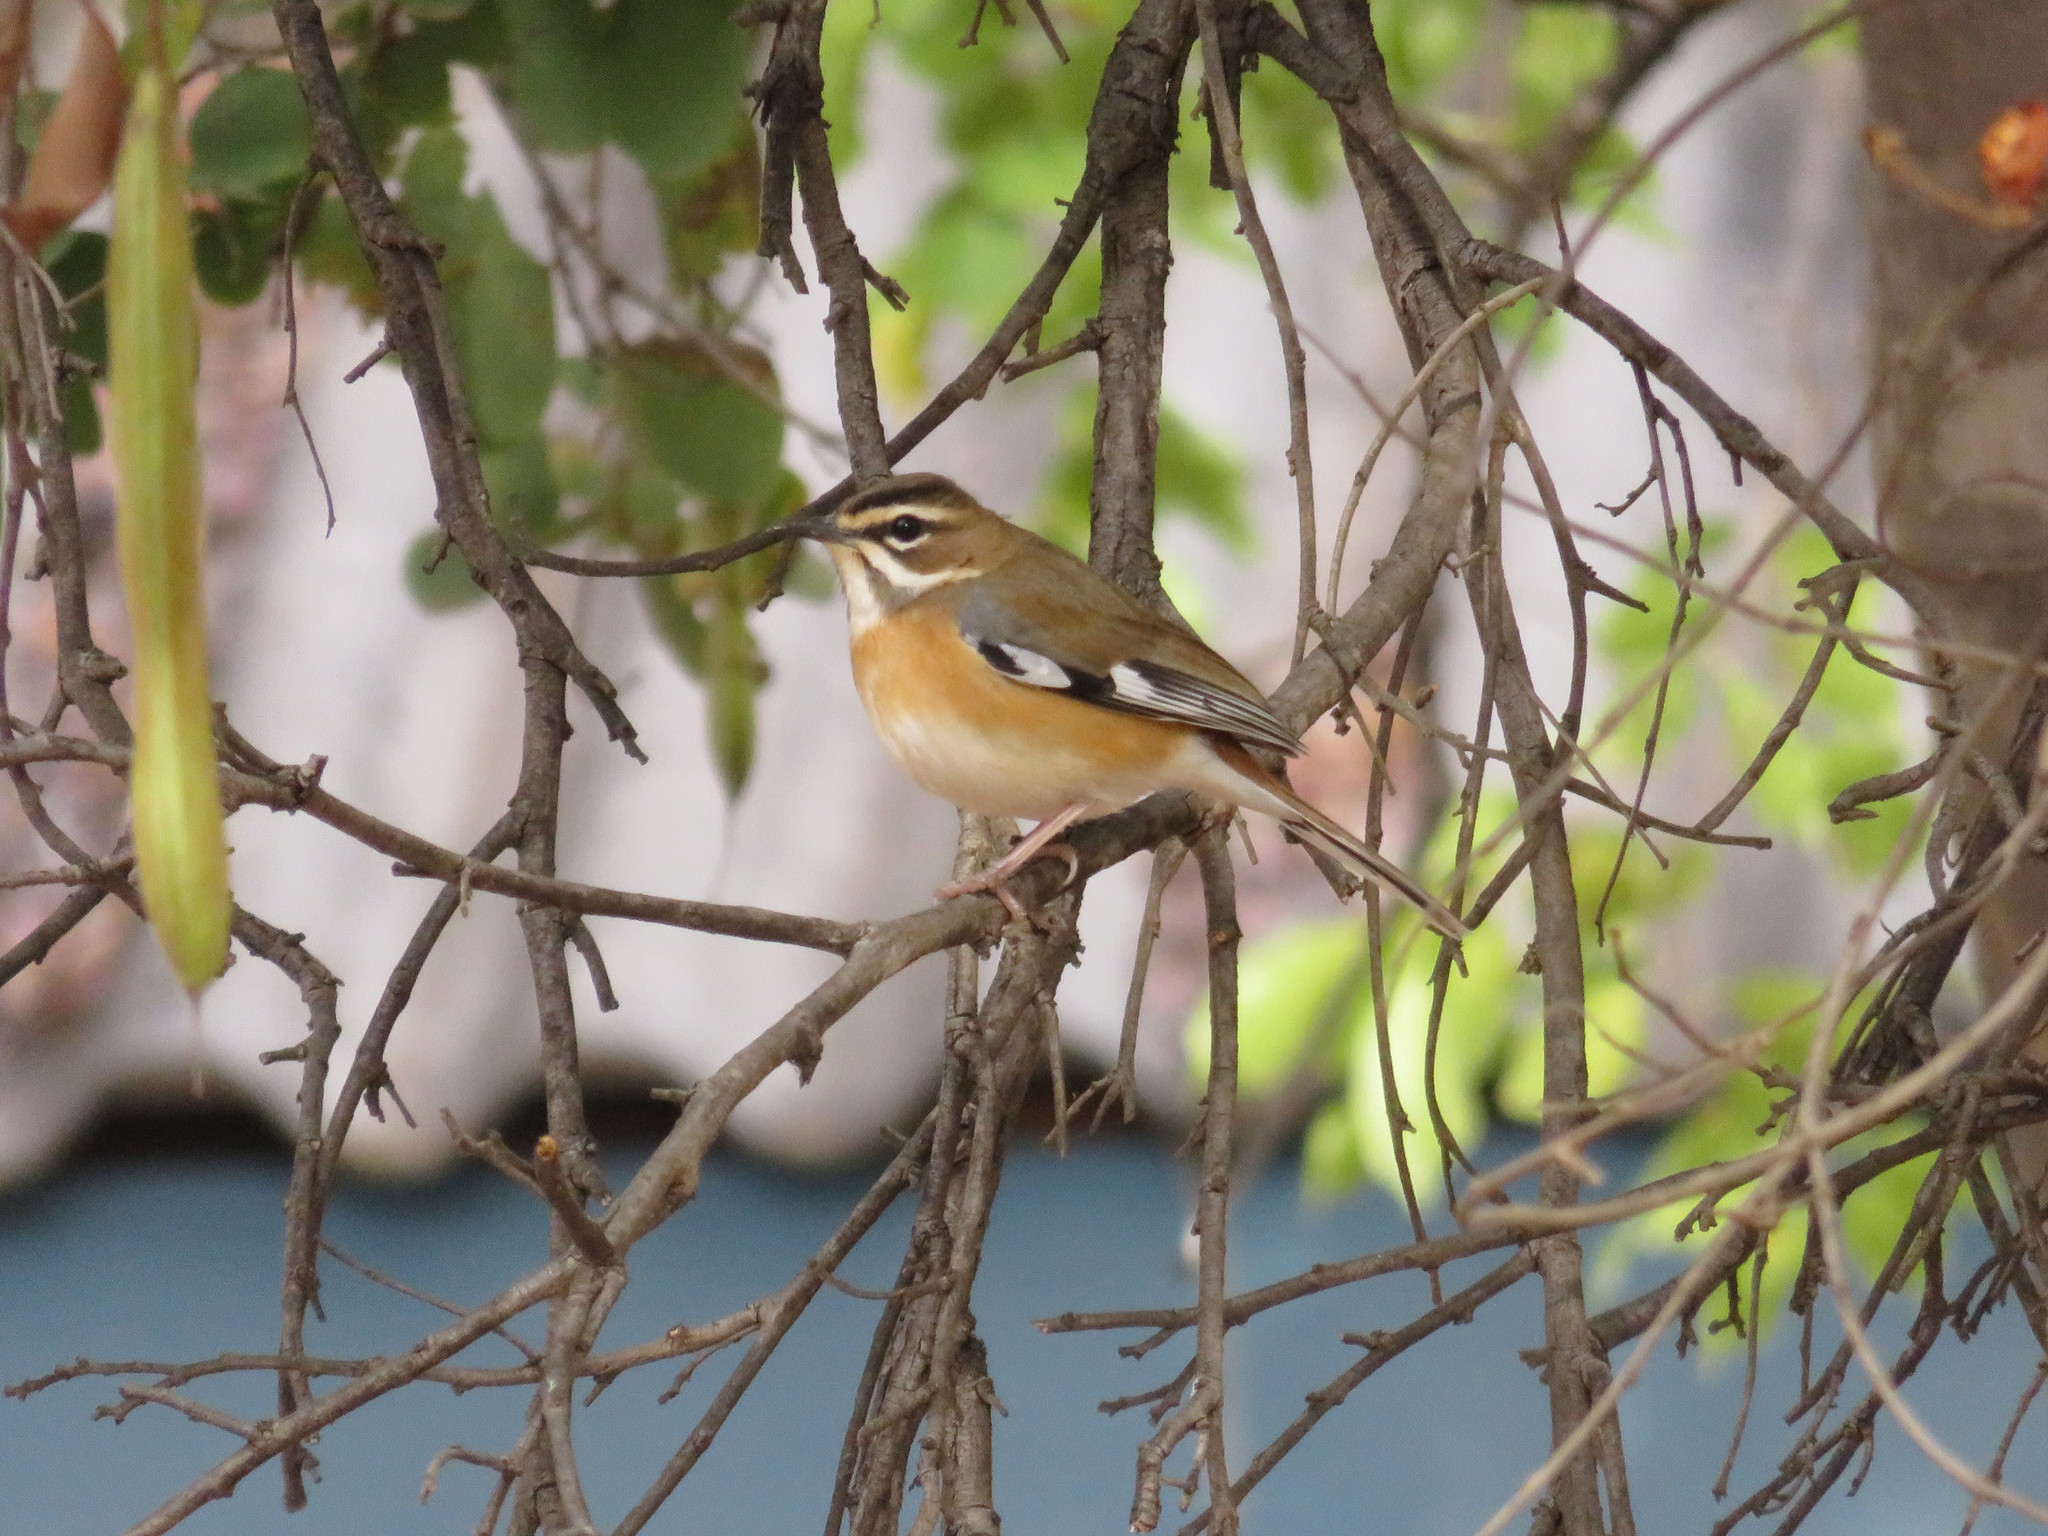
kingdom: Animalia
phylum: Chordata
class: Aves
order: Passeriformes
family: Muscicapidae
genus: Erythropygia
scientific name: Erythropygia quadrivirgata
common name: Bearded scrub robin
